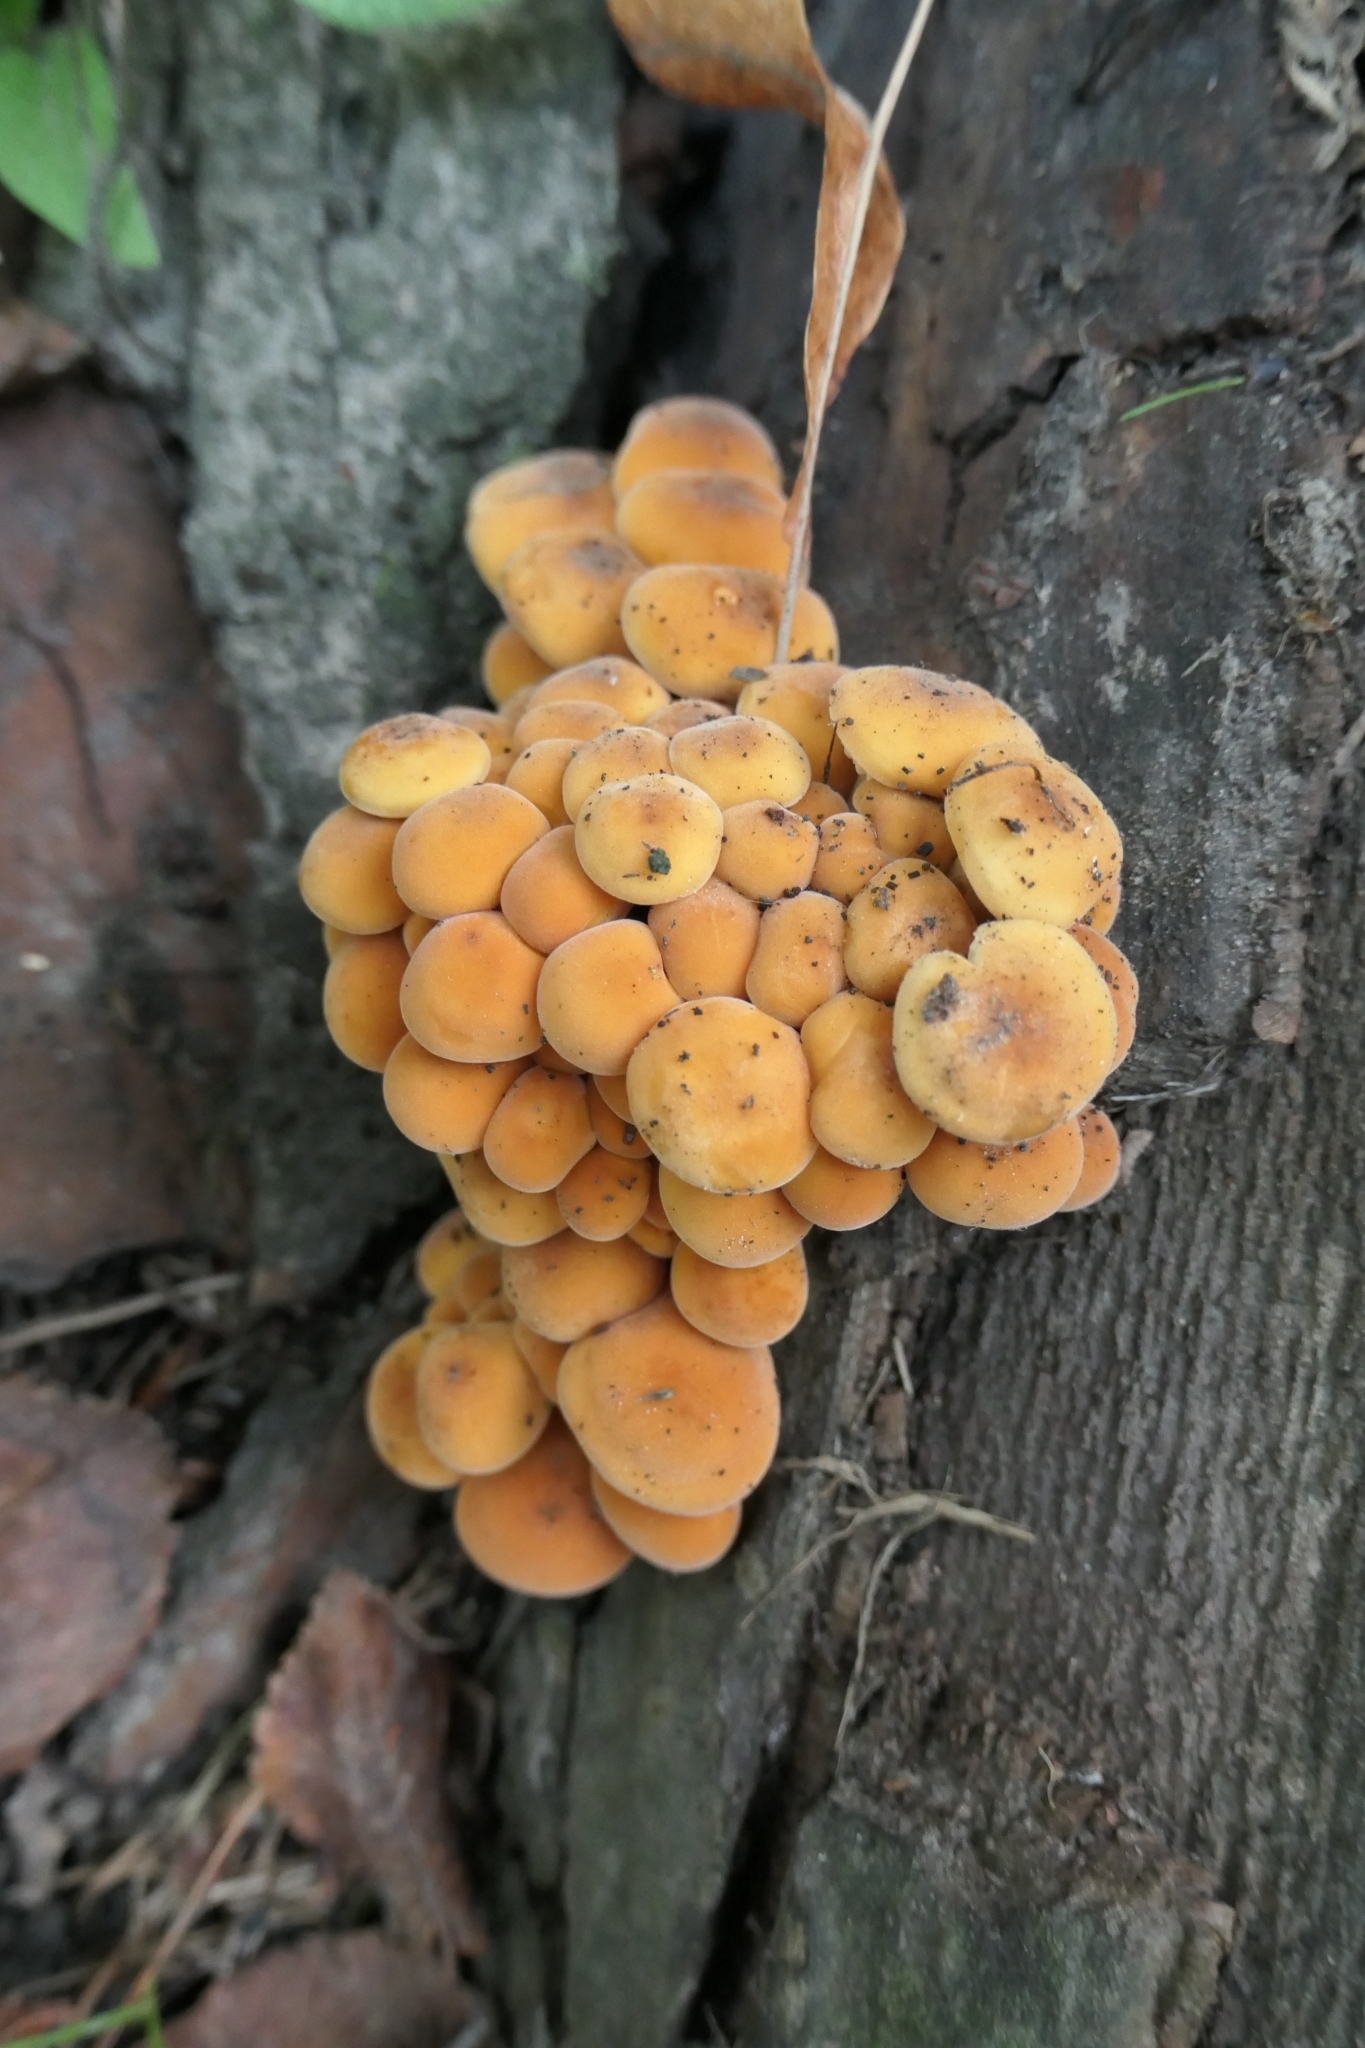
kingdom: Fungi
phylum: Basidiomycota
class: Agaricomycetes
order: Agaricales
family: Physalacriaceae
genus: Flammulina
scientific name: Flammulina velutipes
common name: Velvet shank
